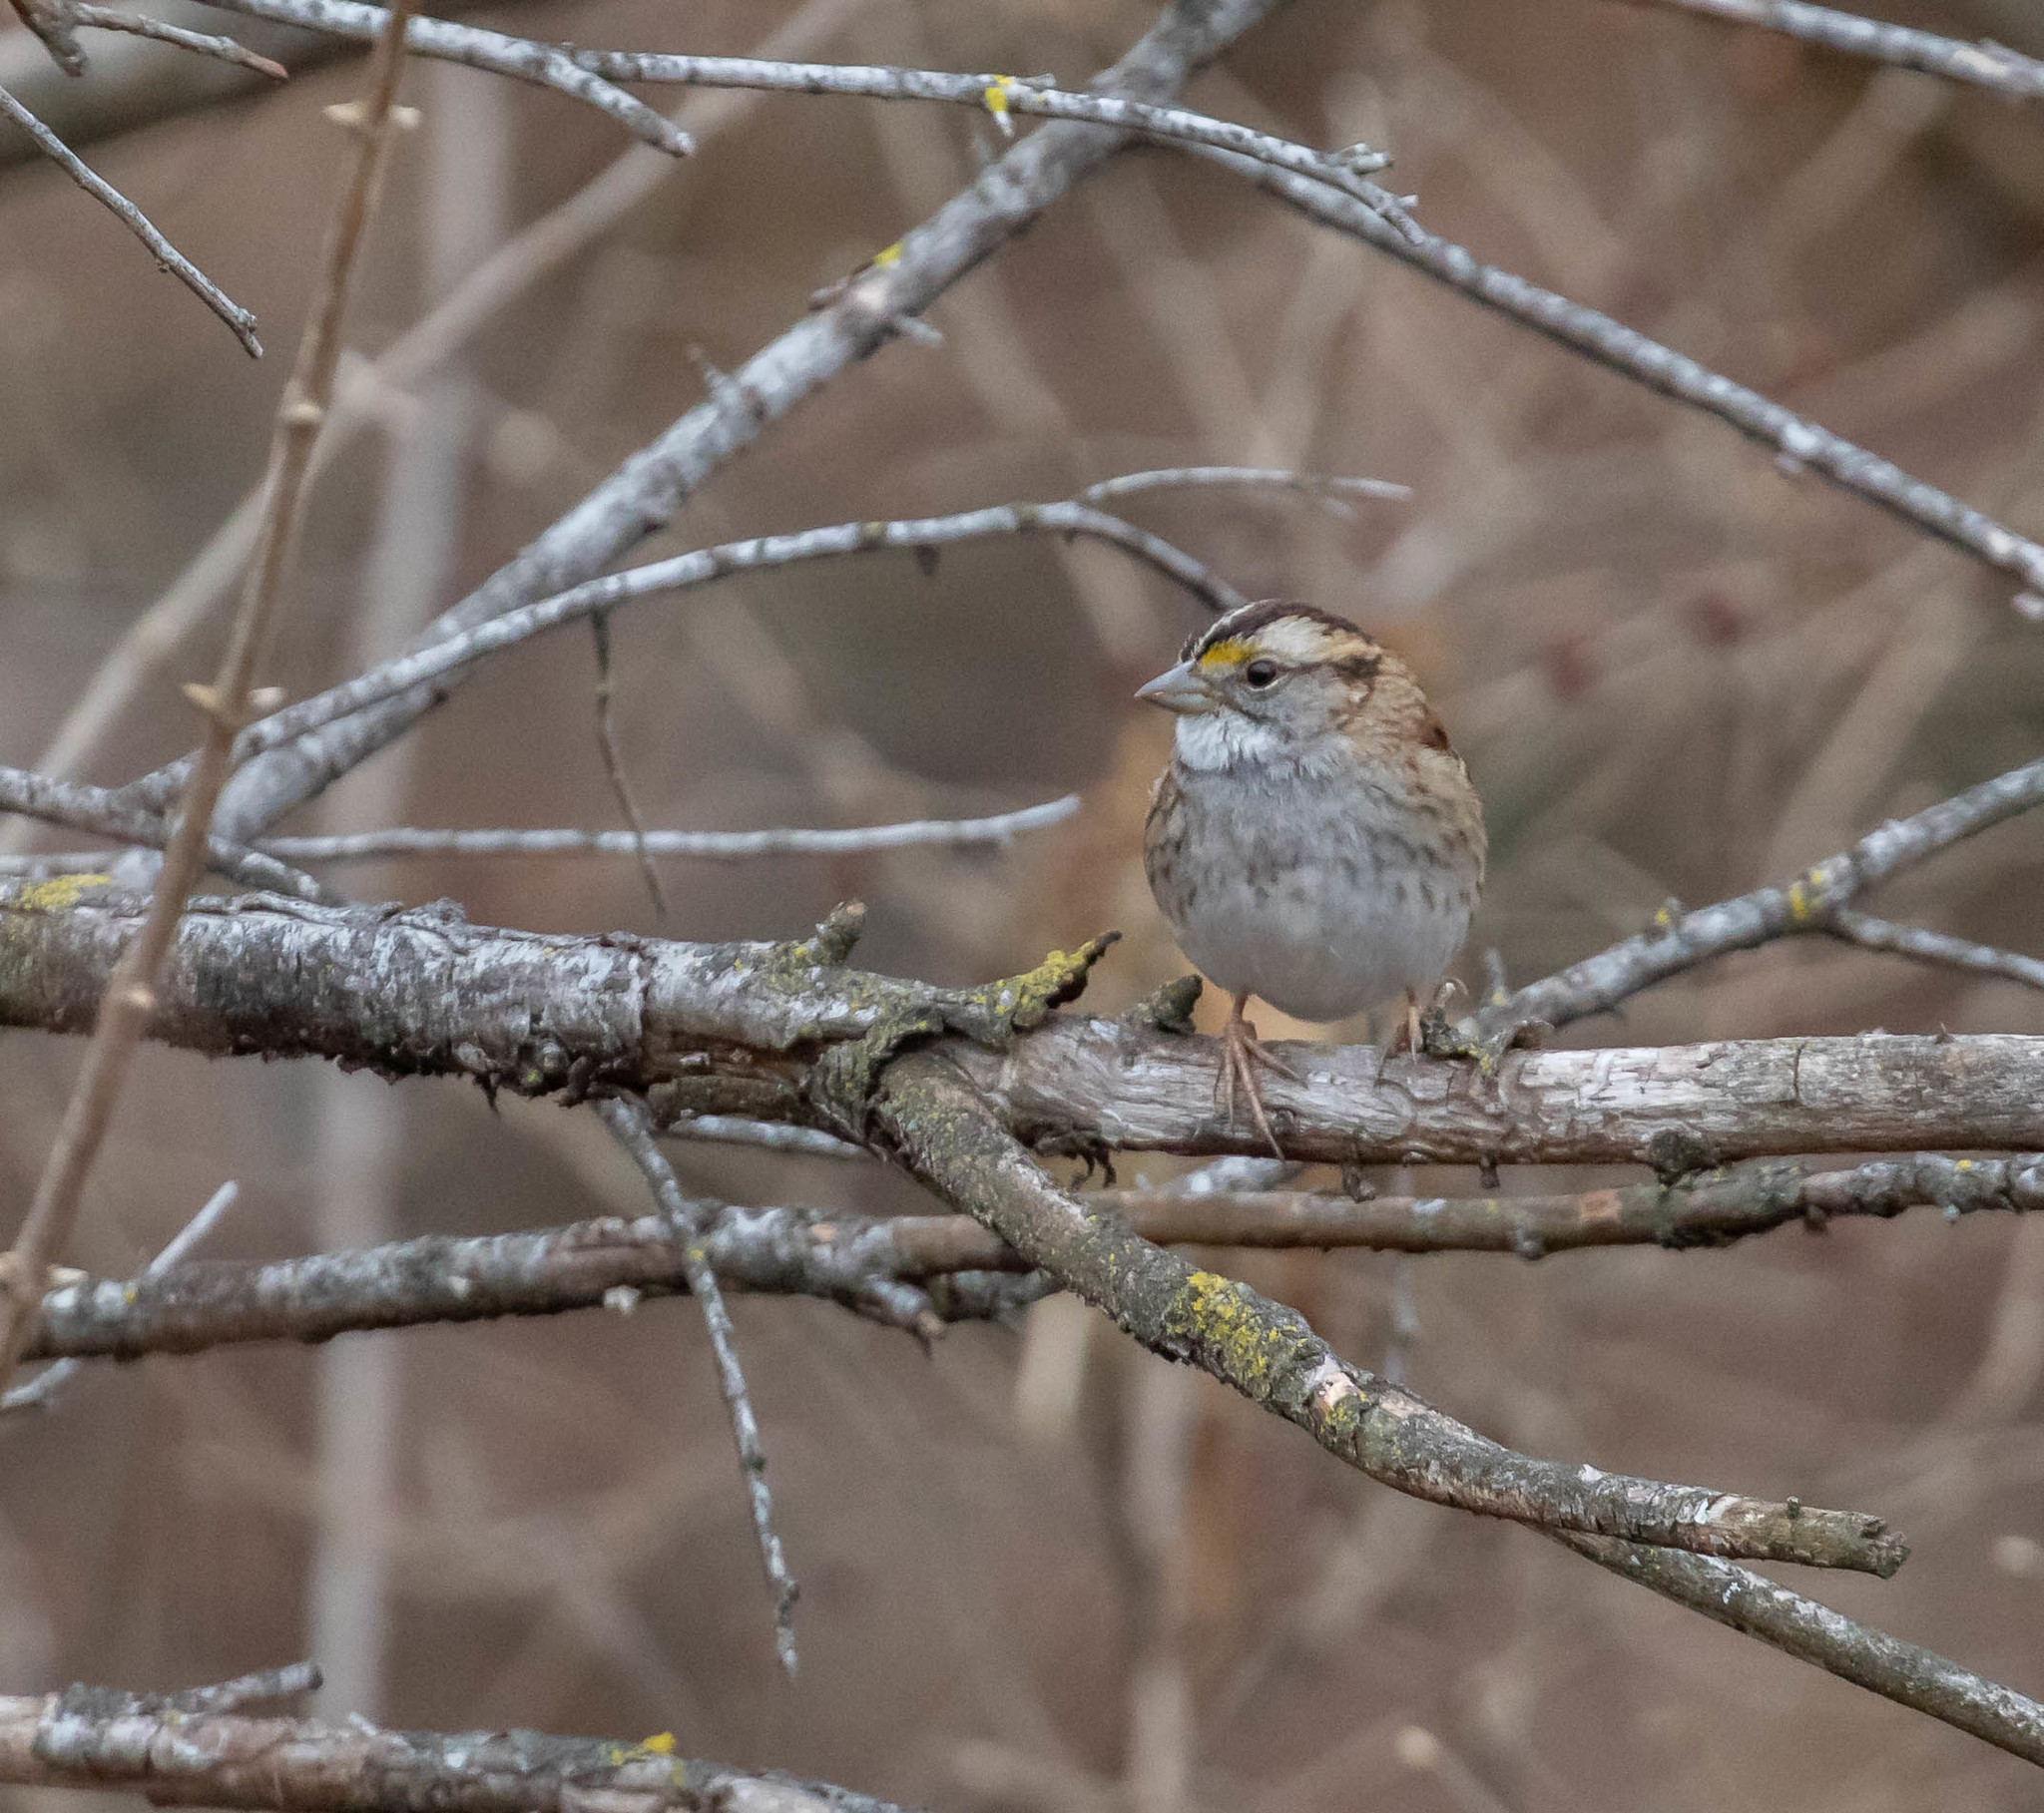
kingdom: Animalia
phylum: Chordata
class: Aves
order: Passeriformes
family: Passerellidae
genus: Zonotrichia
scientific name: Zonotrichia albicollis
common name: White-throated sparrow
